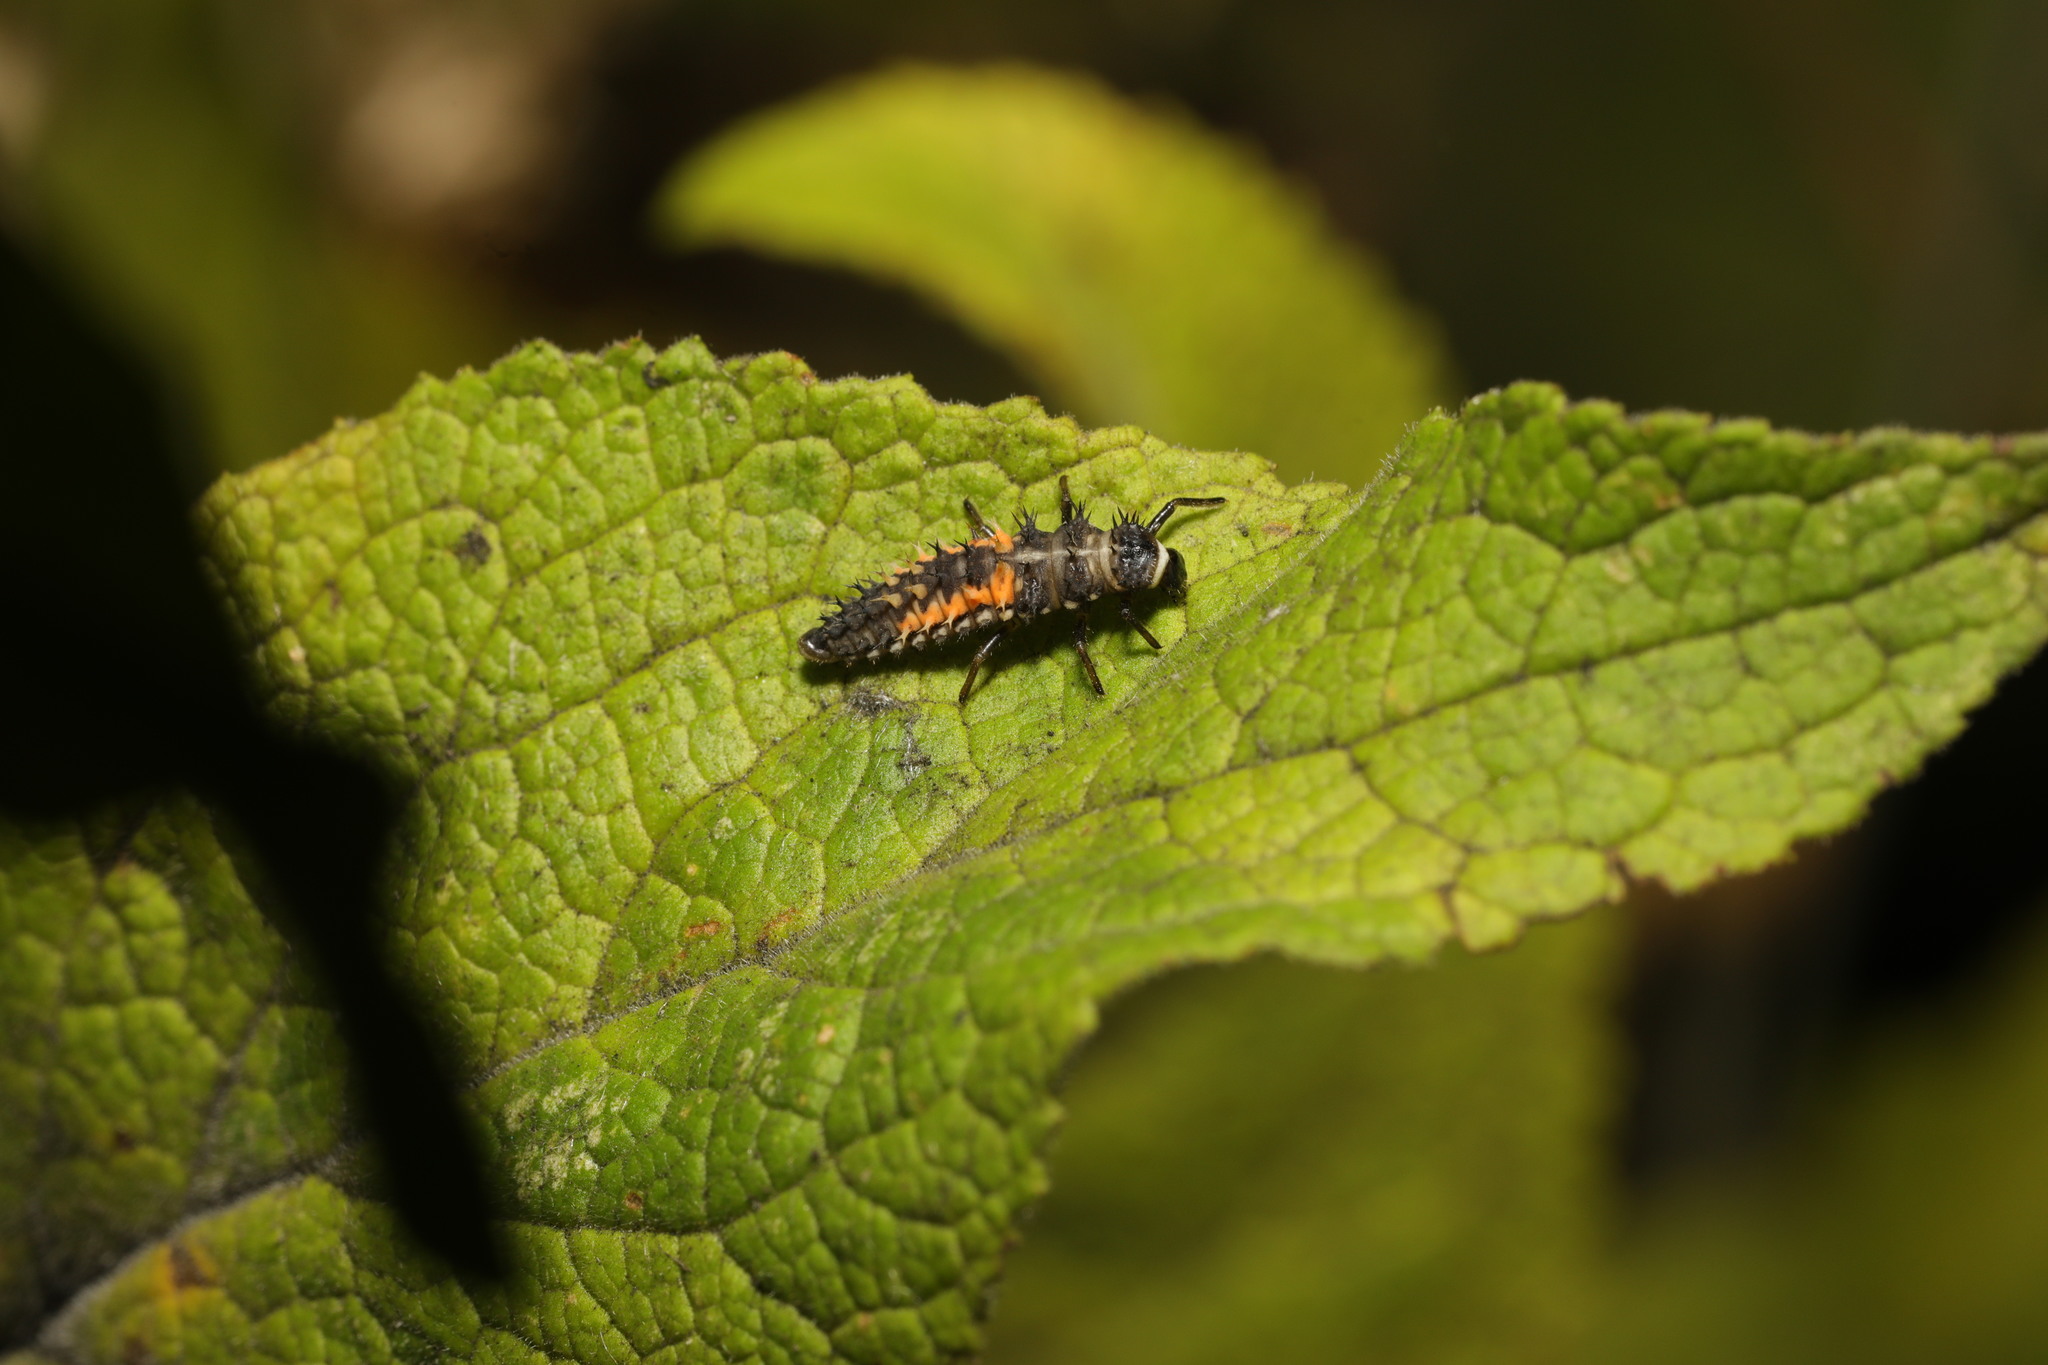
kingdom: Animalia
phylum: Arthropoda
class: Insecta
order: Coleoptera
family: Coccinellidae
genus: Harmonia
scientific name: Harmonia axyridis
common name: Harlequin ladybird
